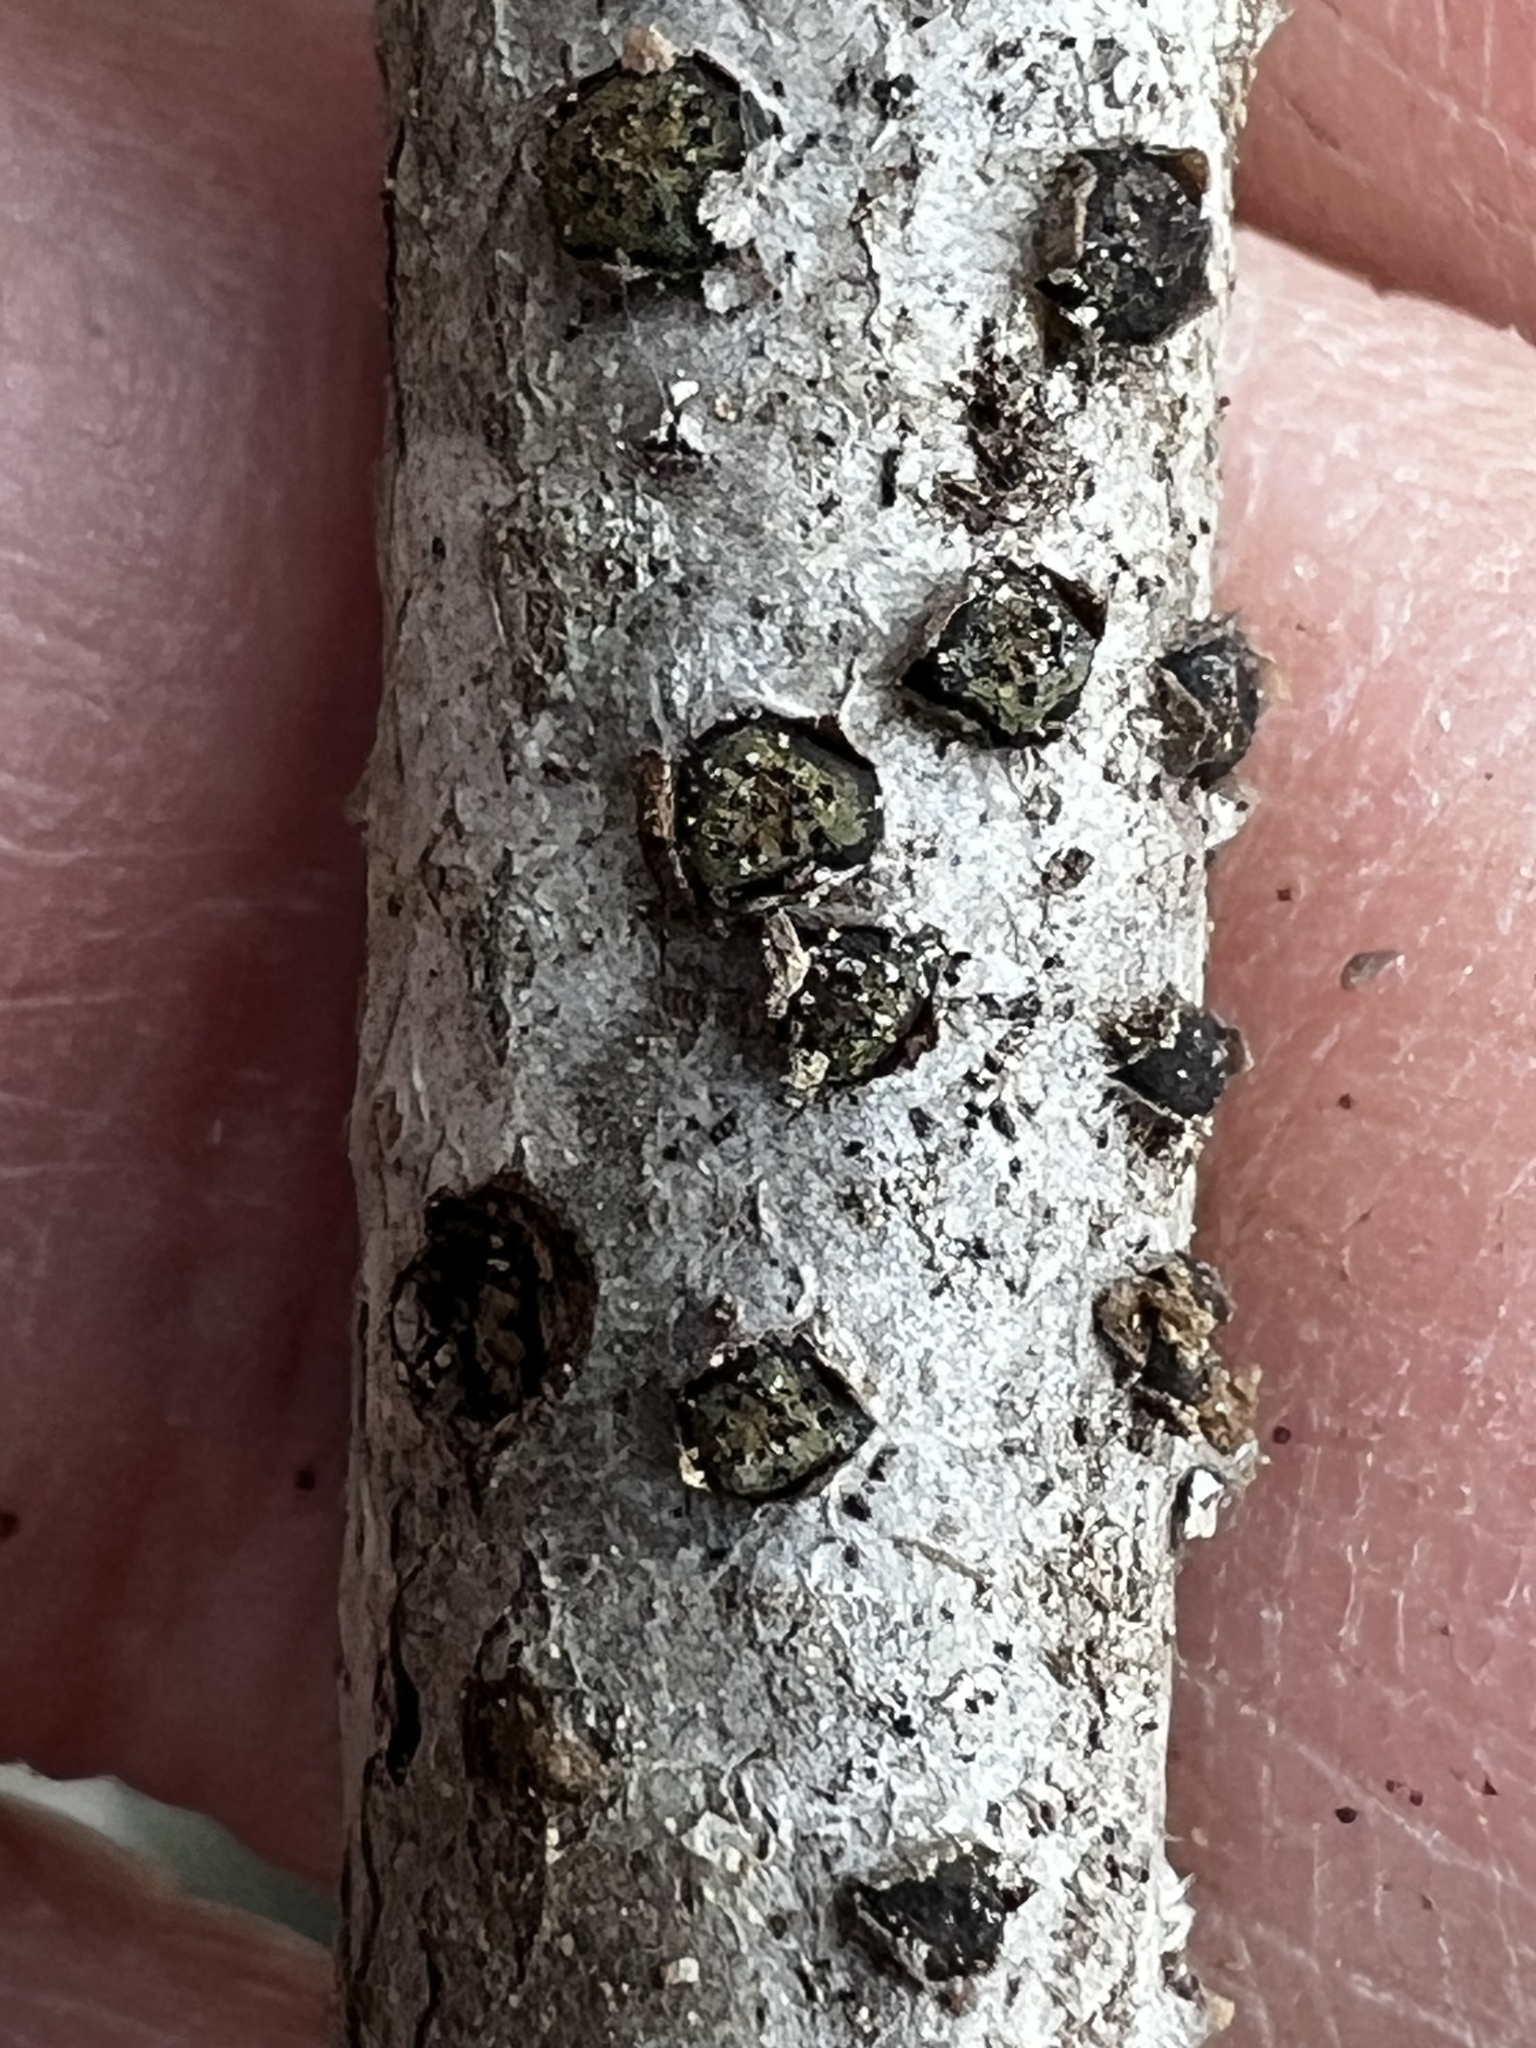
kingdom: Fungi
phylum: Ascomycota
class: Sordariomycetes
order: Xylariales
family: Diatrypaceae
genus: Diatrype
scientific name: Diatrype virescens
